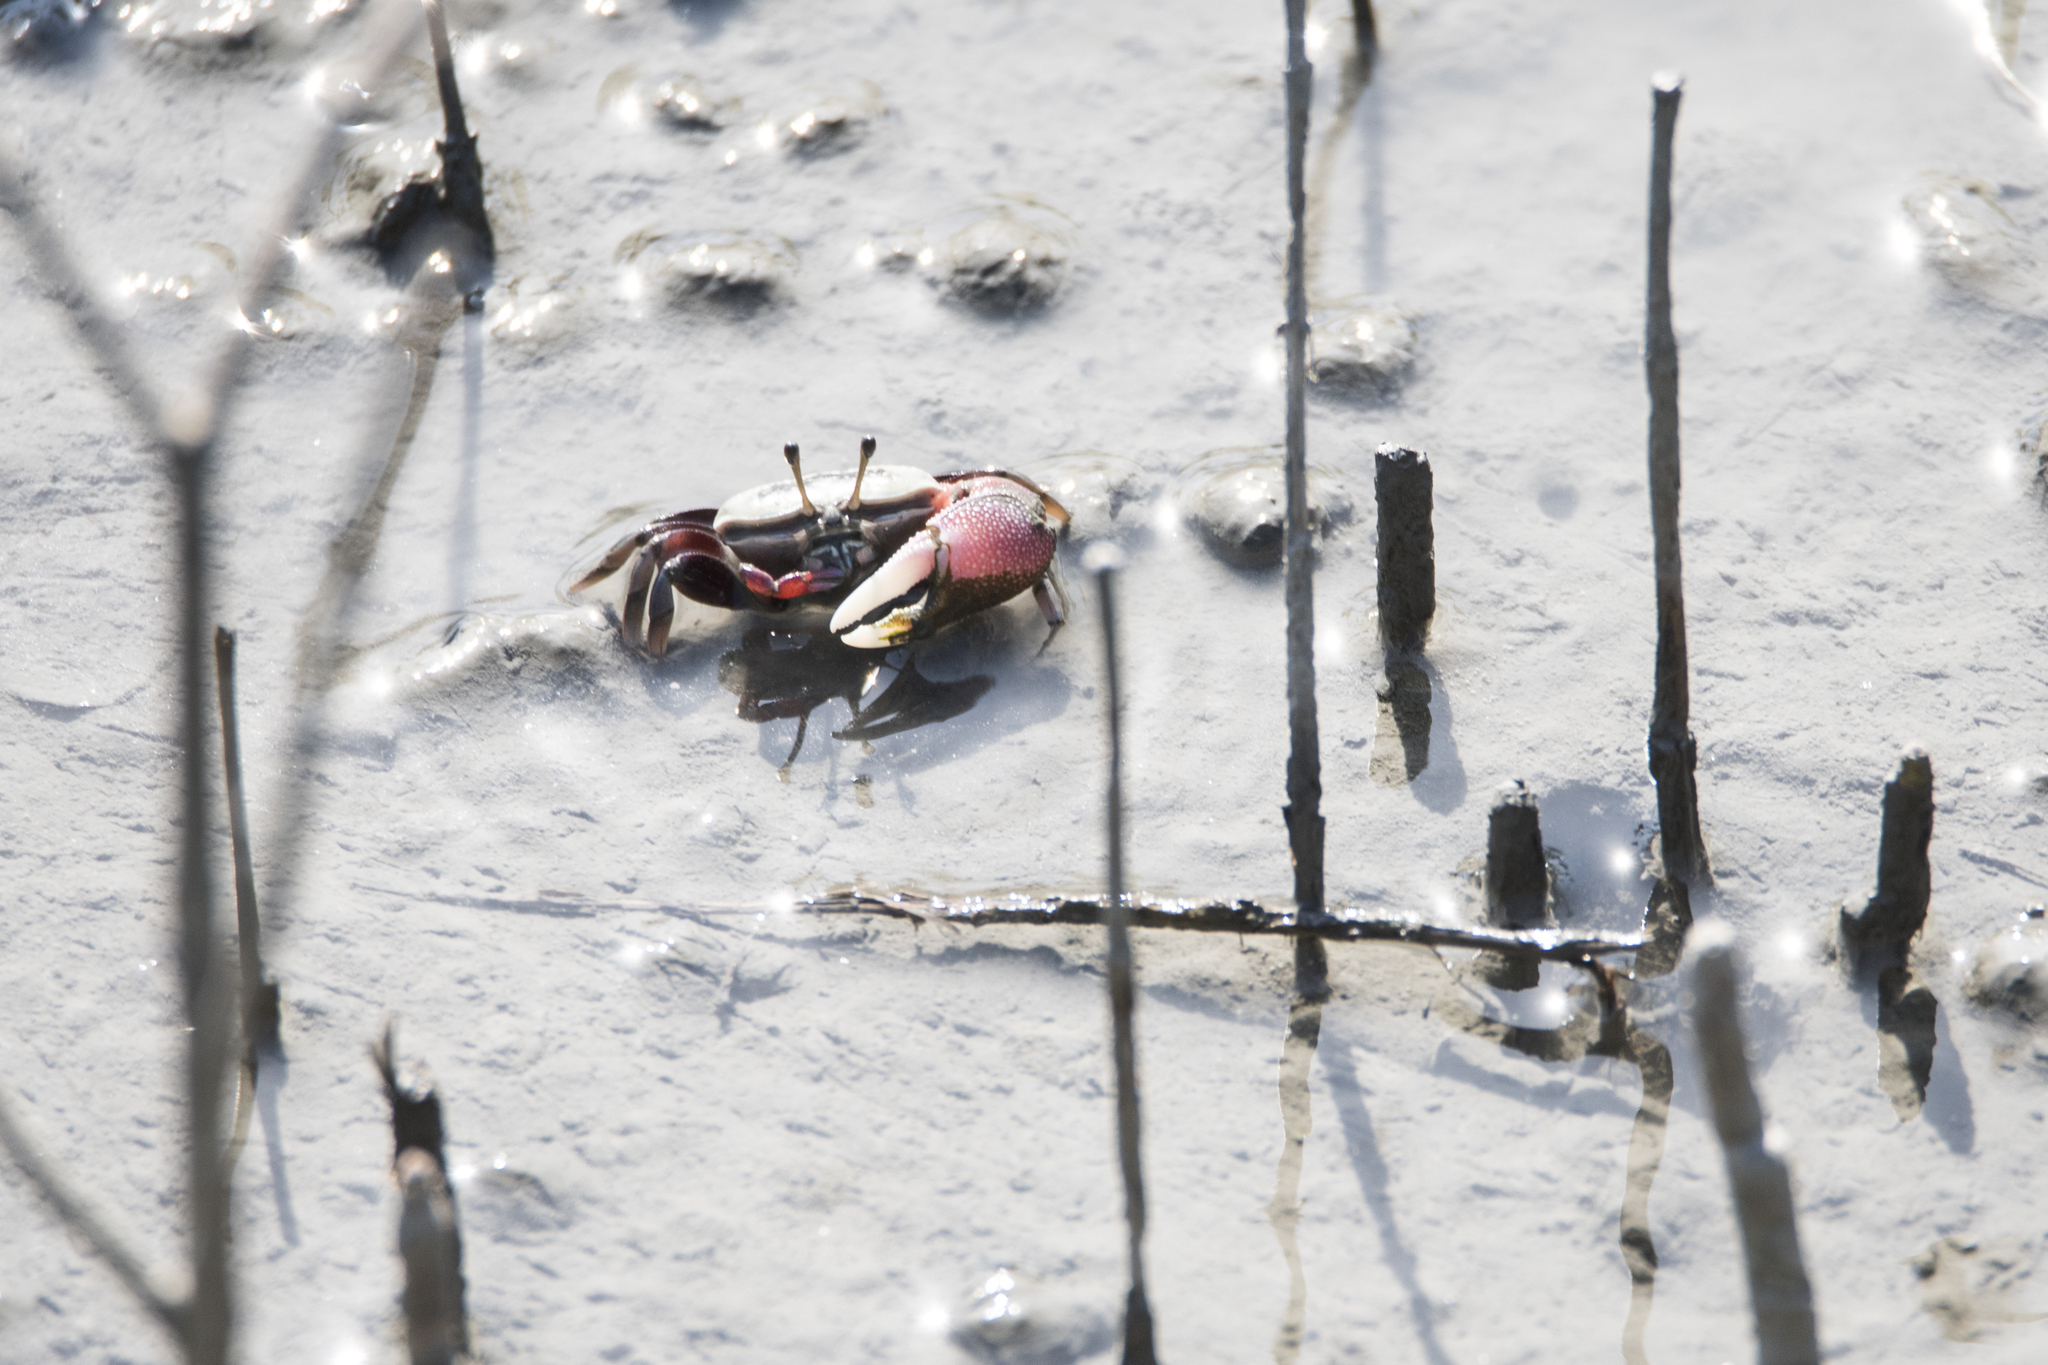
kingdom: Animalia
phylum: Arthropoda
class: Malacostraca
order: Decapoda
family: Ocypodidae
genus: Tubuca
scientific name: Tubuca arcuata
